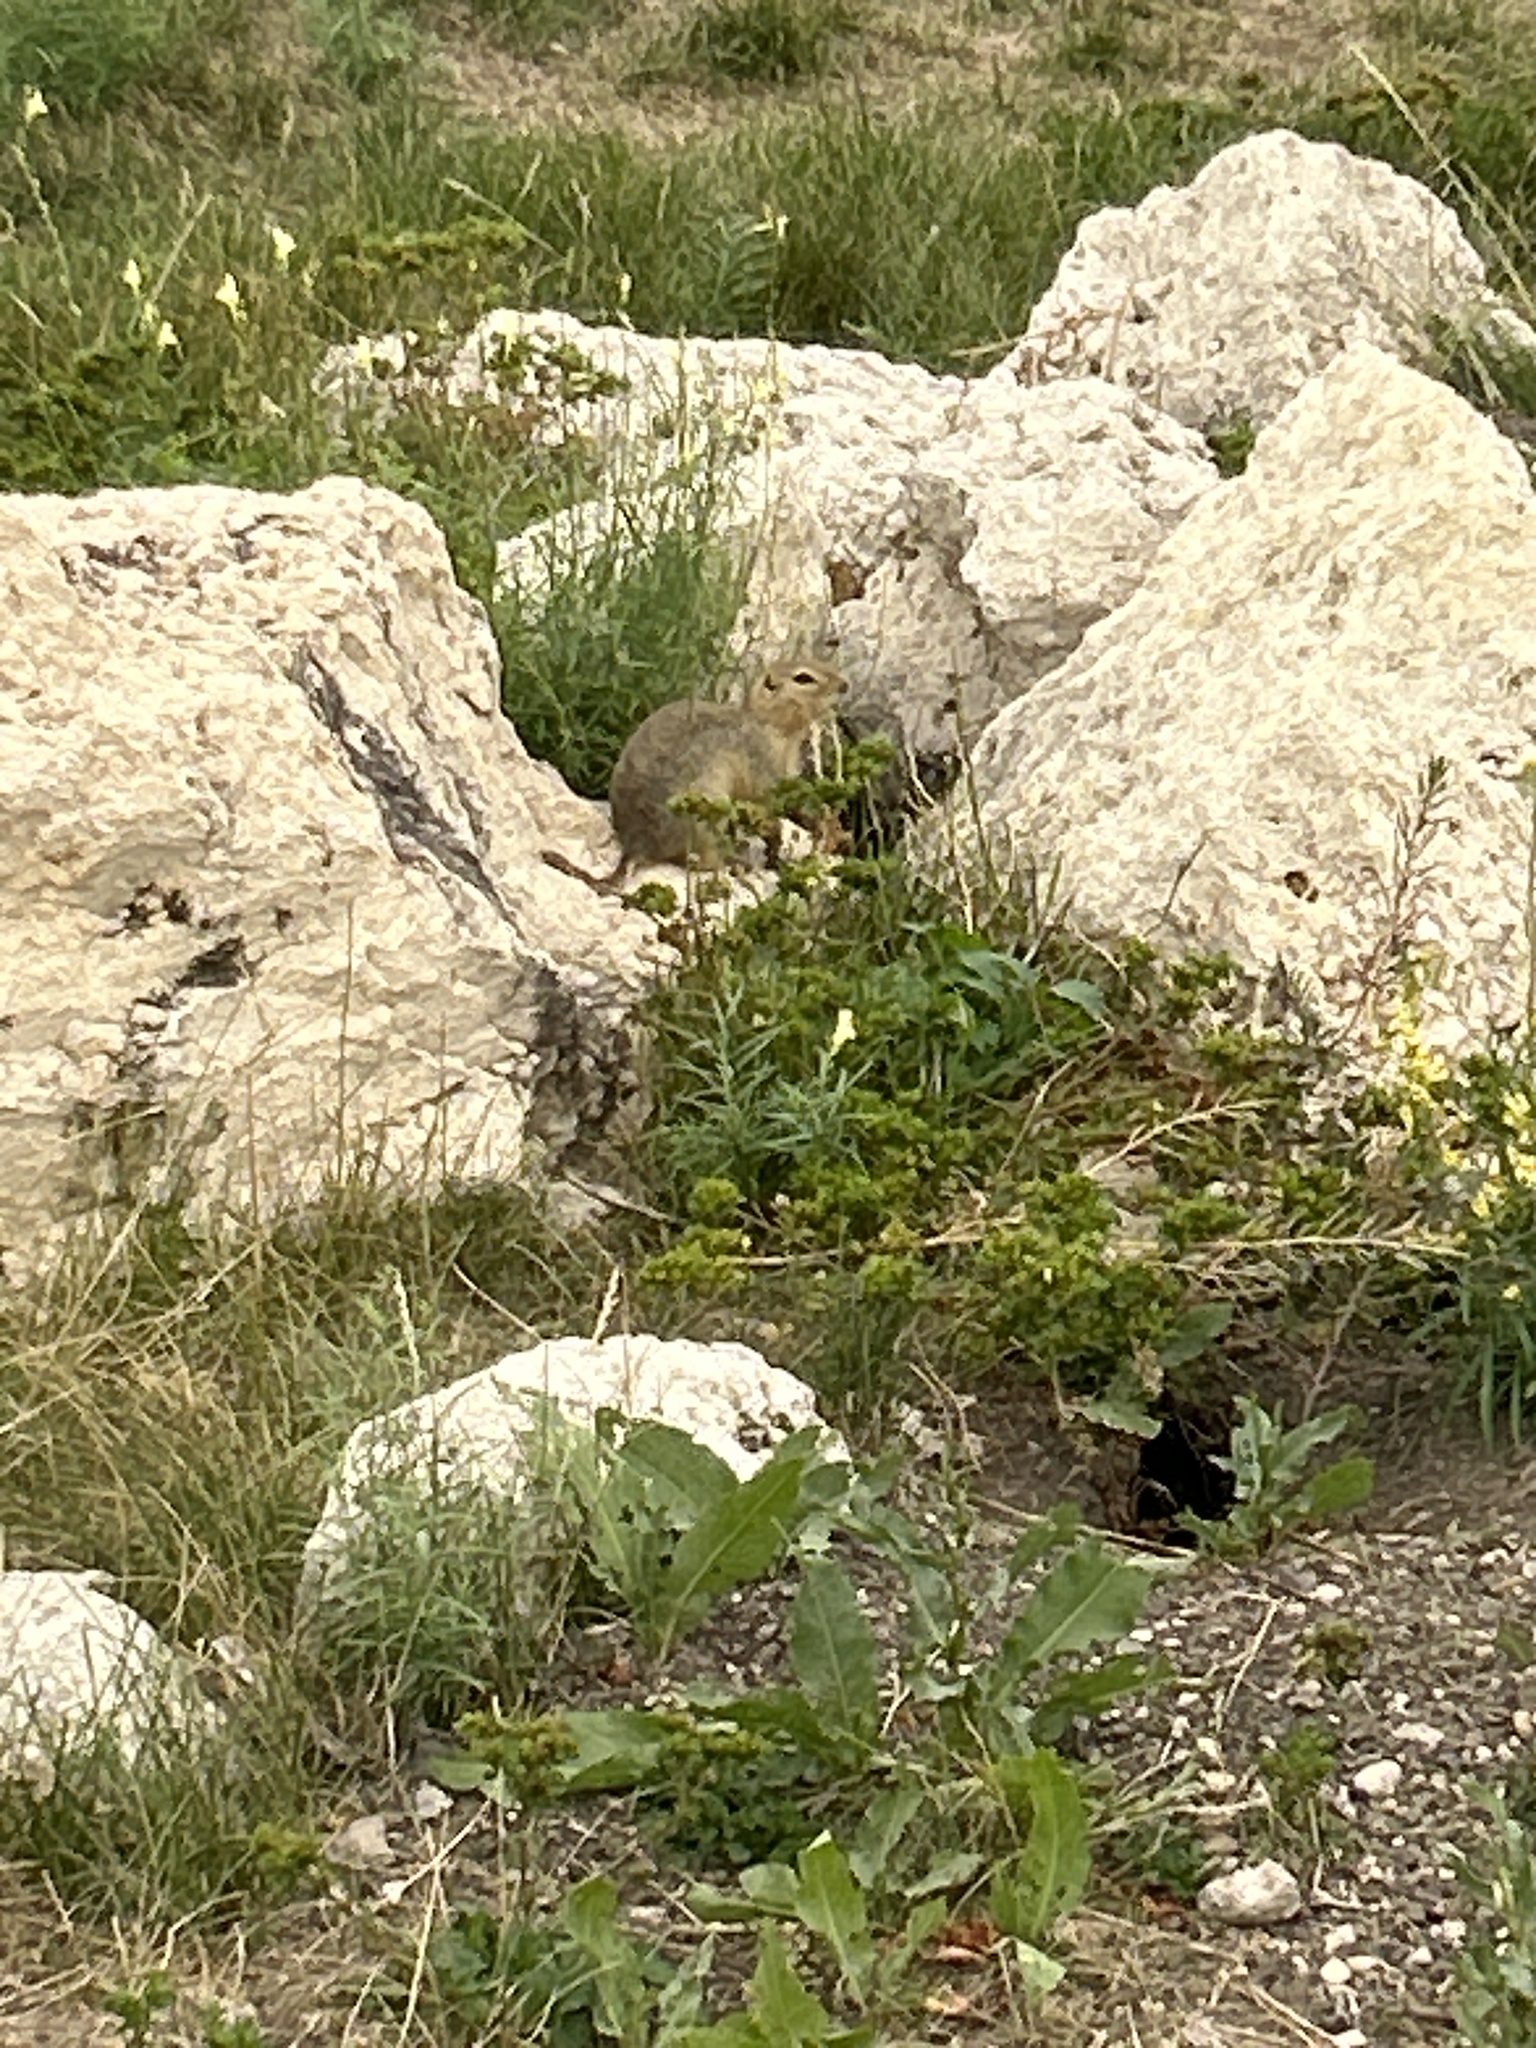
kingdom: Animalia
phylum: Chordata
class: Mammalia
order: Rodentia
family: Sciuridae
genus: Urocitellus
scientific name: Urocitellus richardsonii
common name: Richardson's ground squirrel
